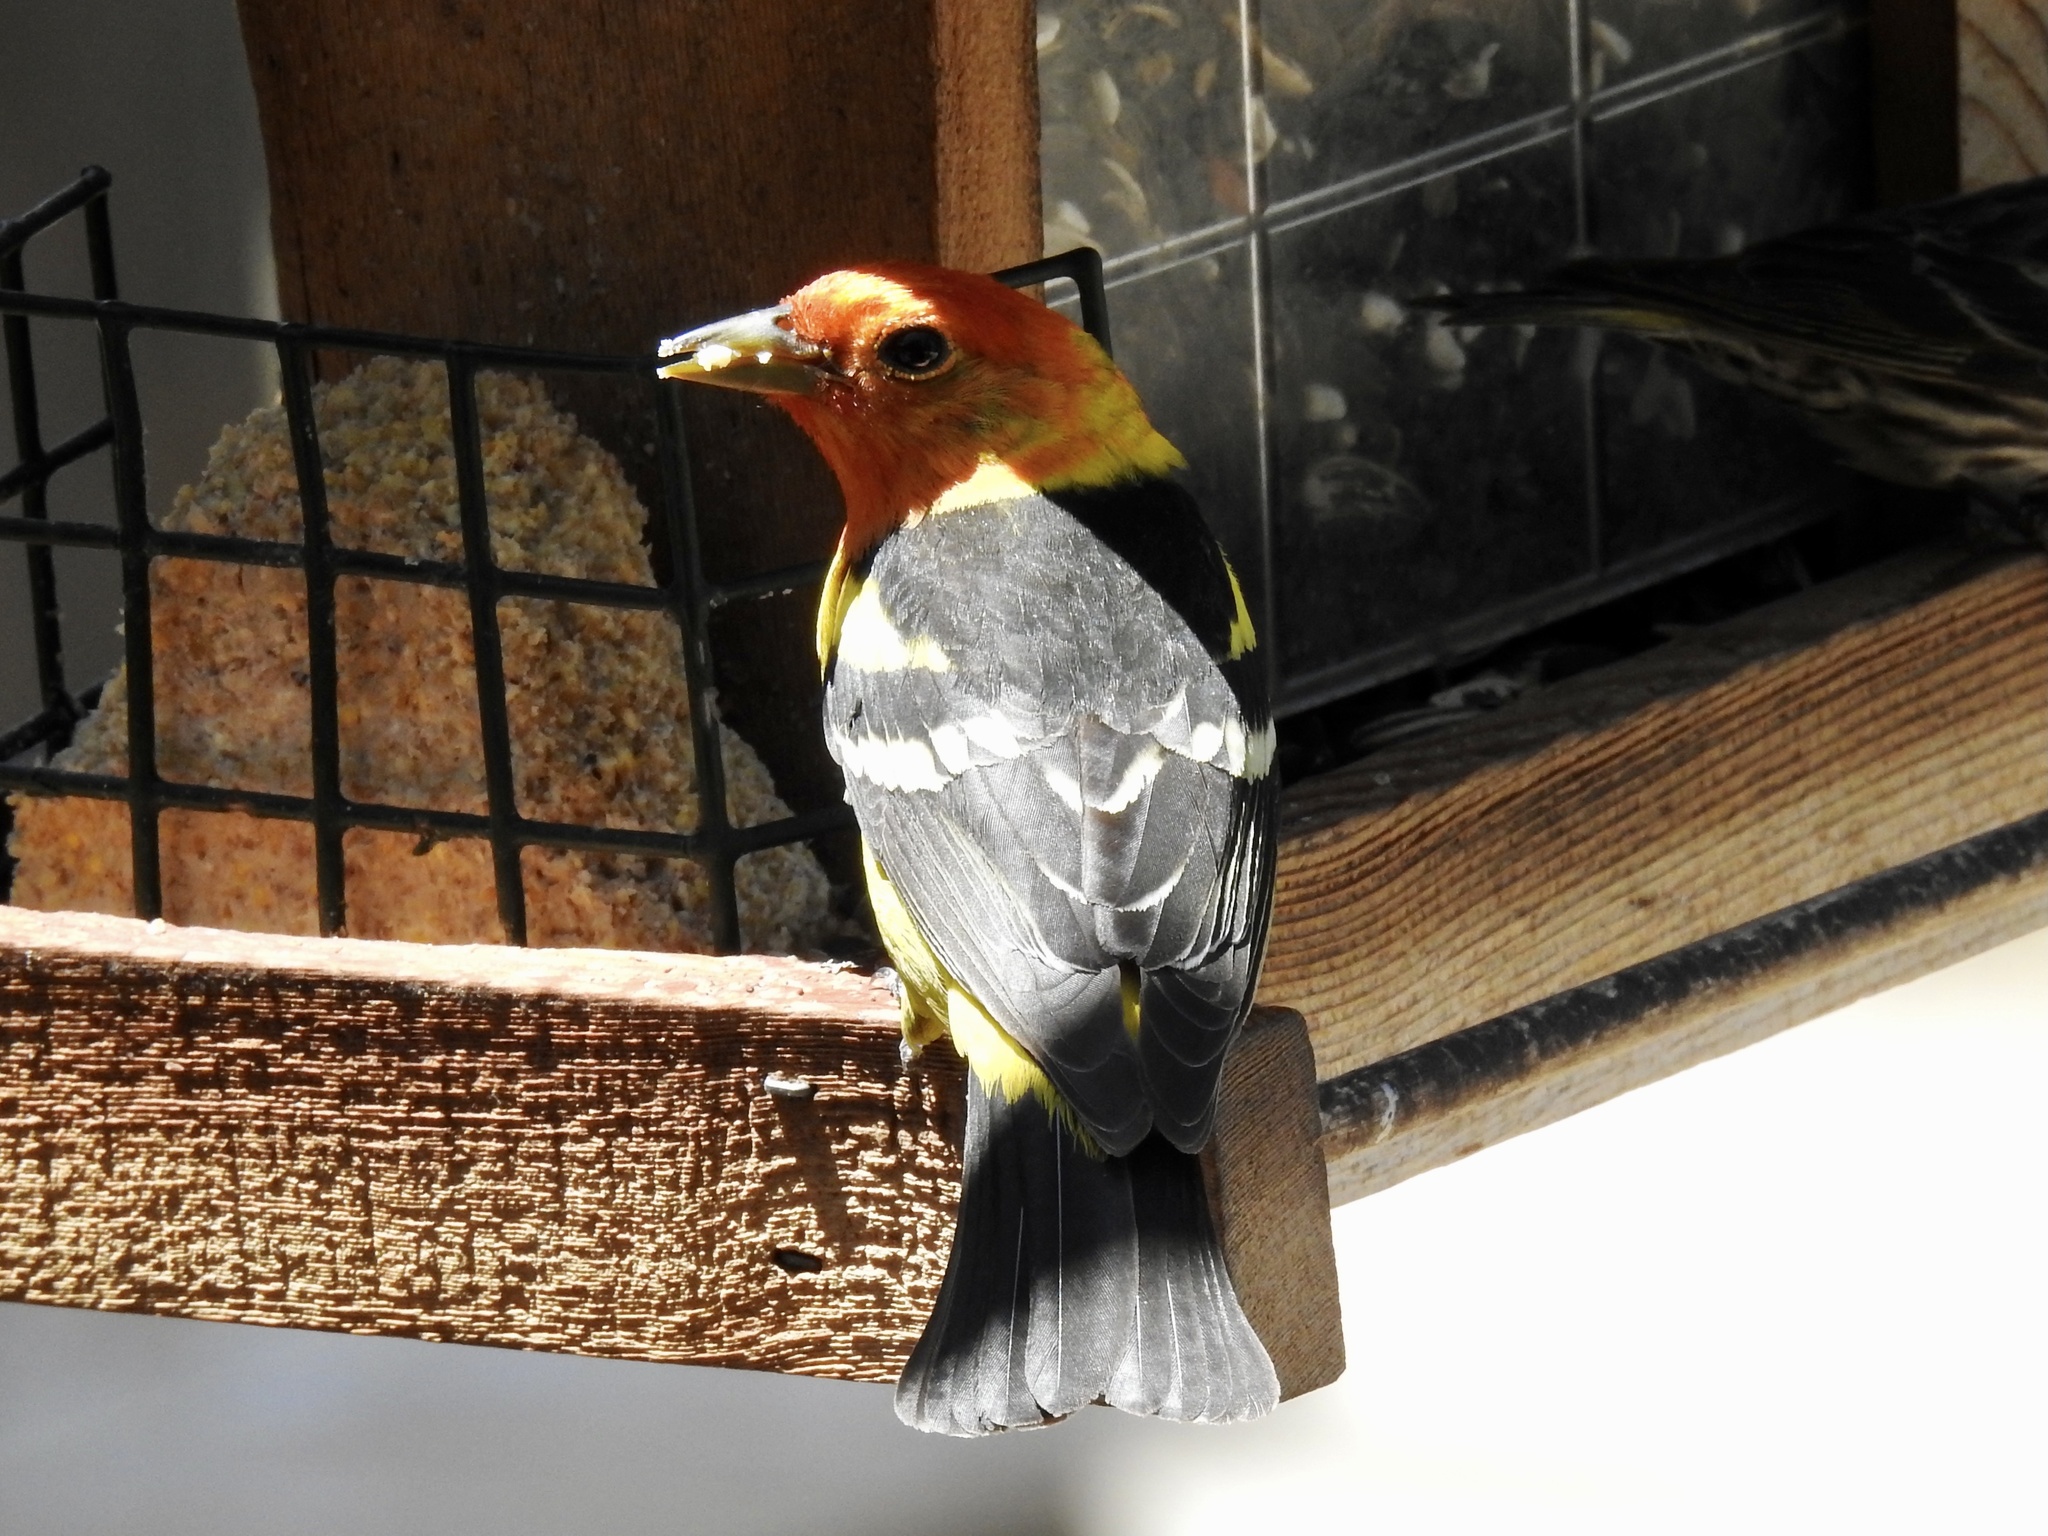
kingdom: Animalia
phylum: Chordata
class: Aves
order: Passeriformes
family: Cardinalidae
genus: Piranga
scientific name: Piranga ludoviciana
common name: Western tanager
